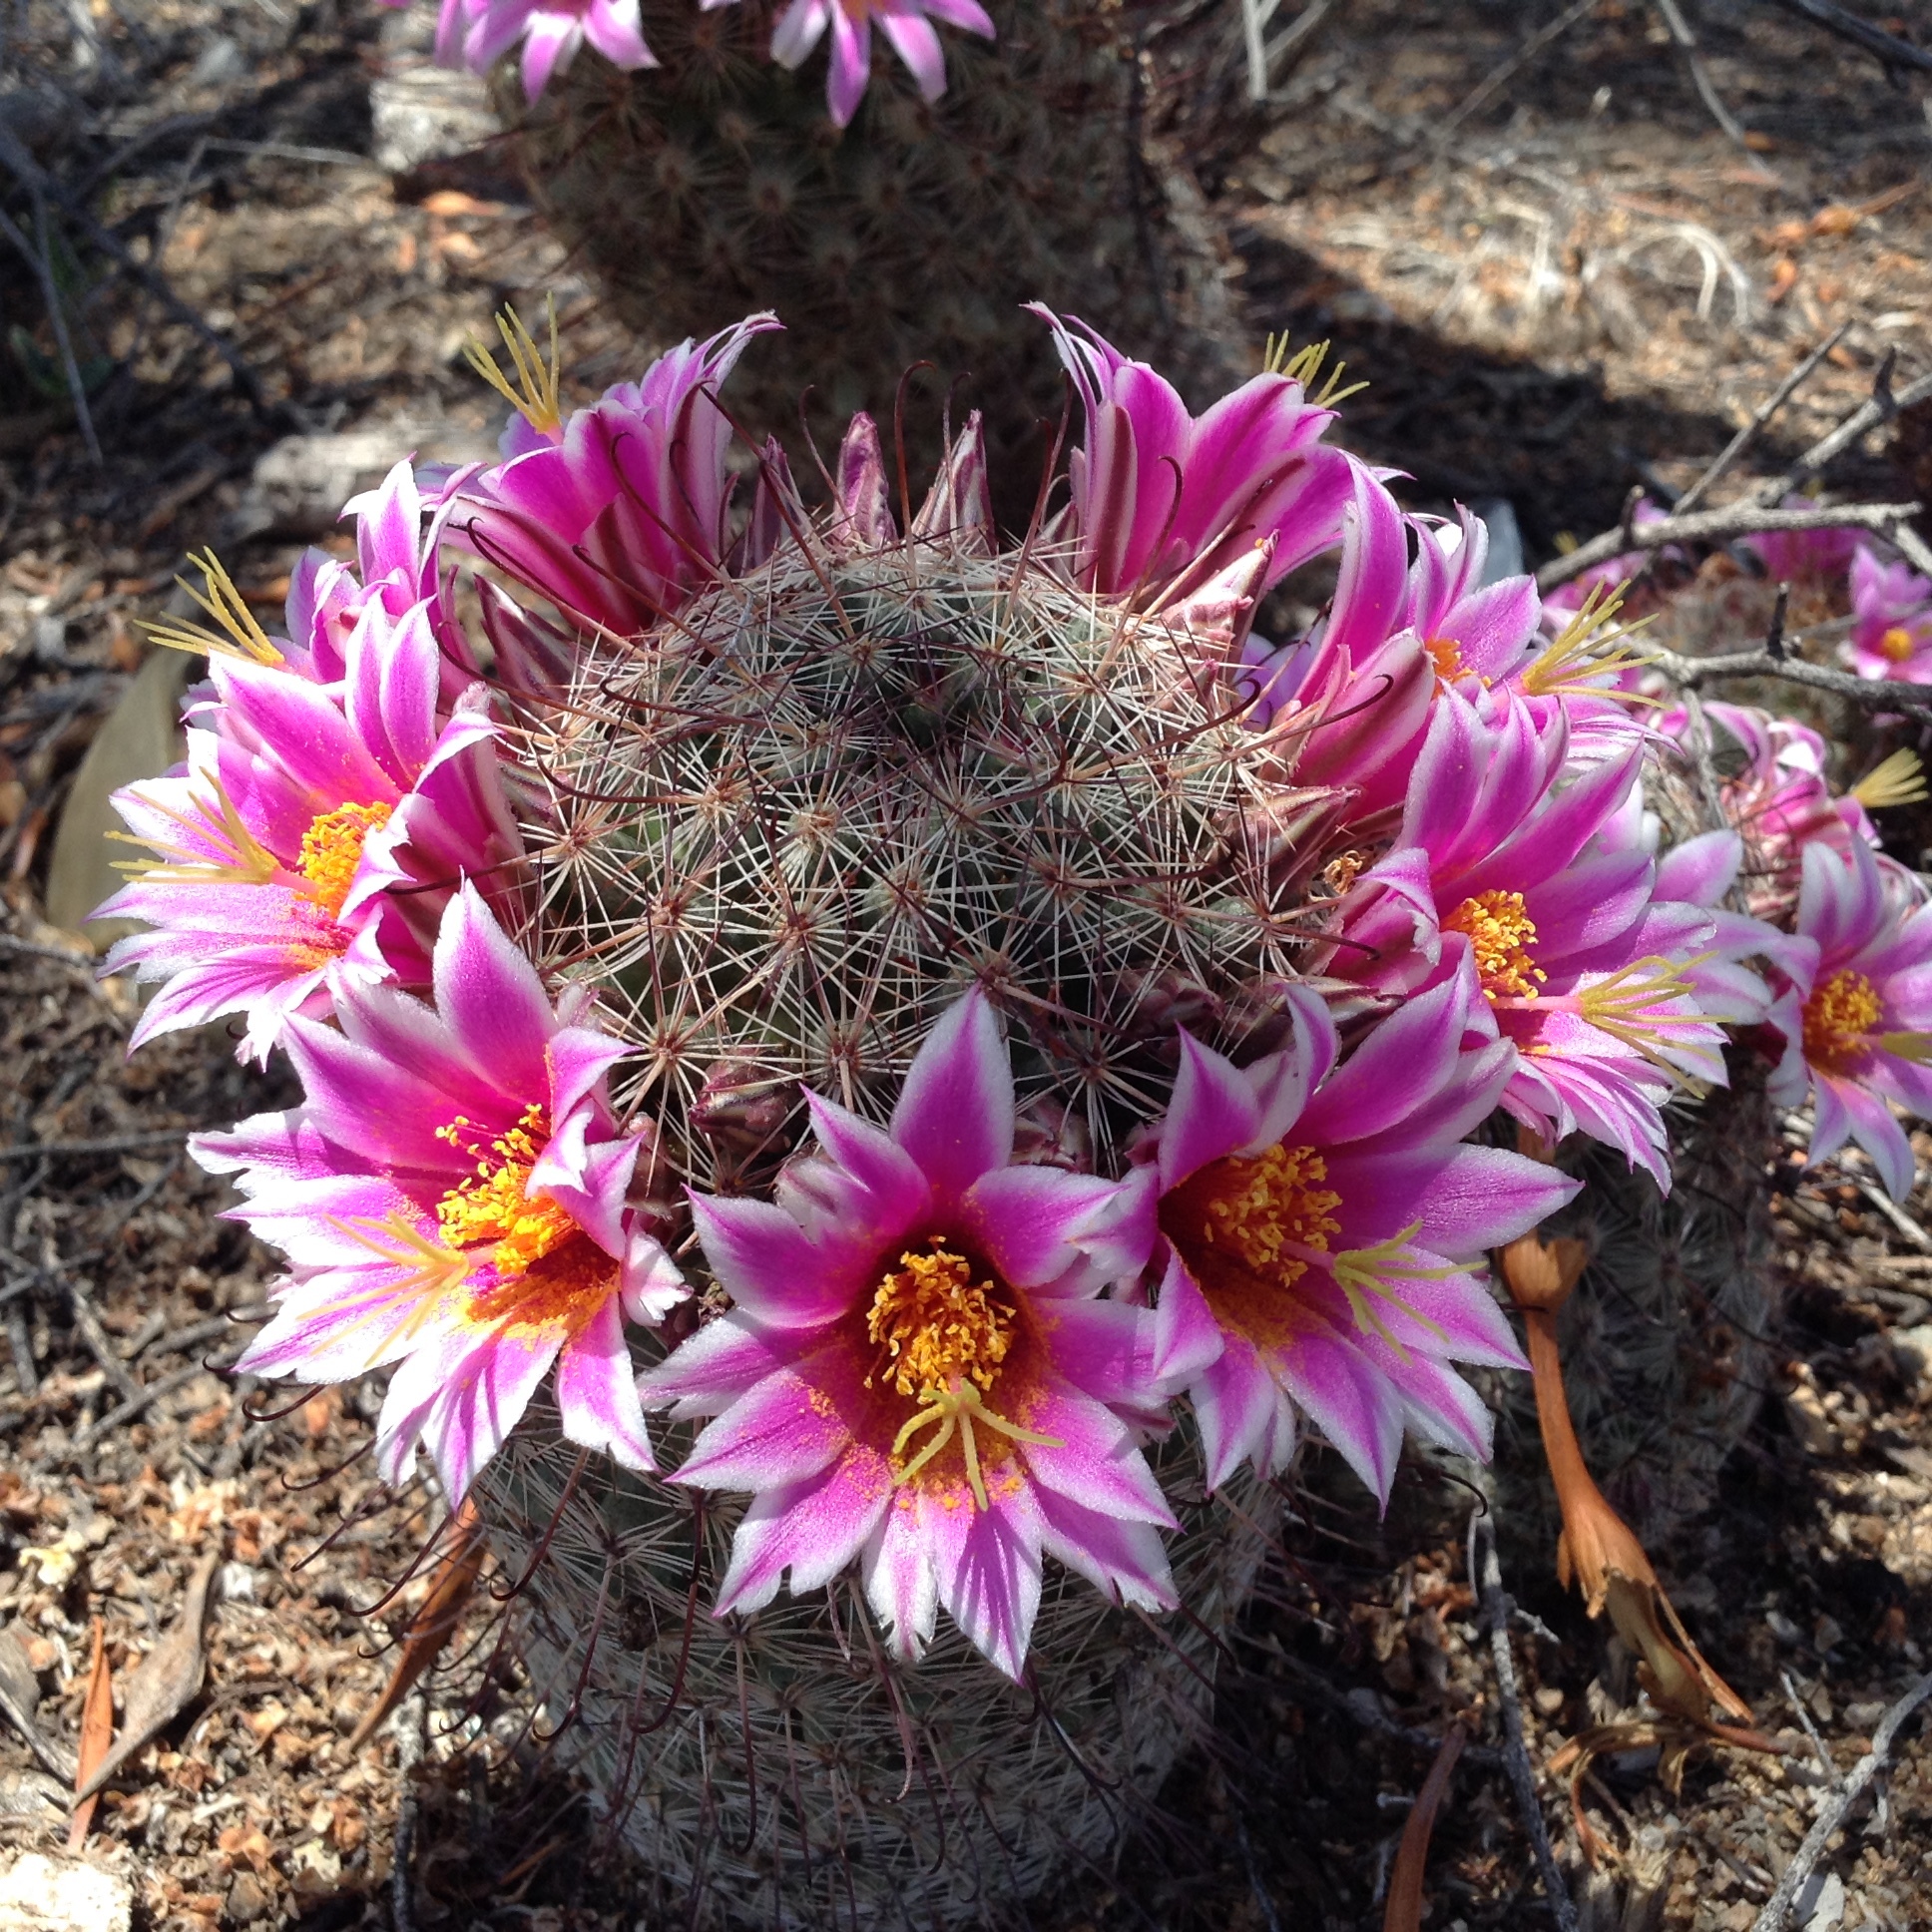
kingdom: Plantae
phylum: Tracheophyta
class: Magnoliopsida
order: Caryophyllales
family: Cactaceae
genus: Cochemiea
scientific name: Cochemiea grahamii
